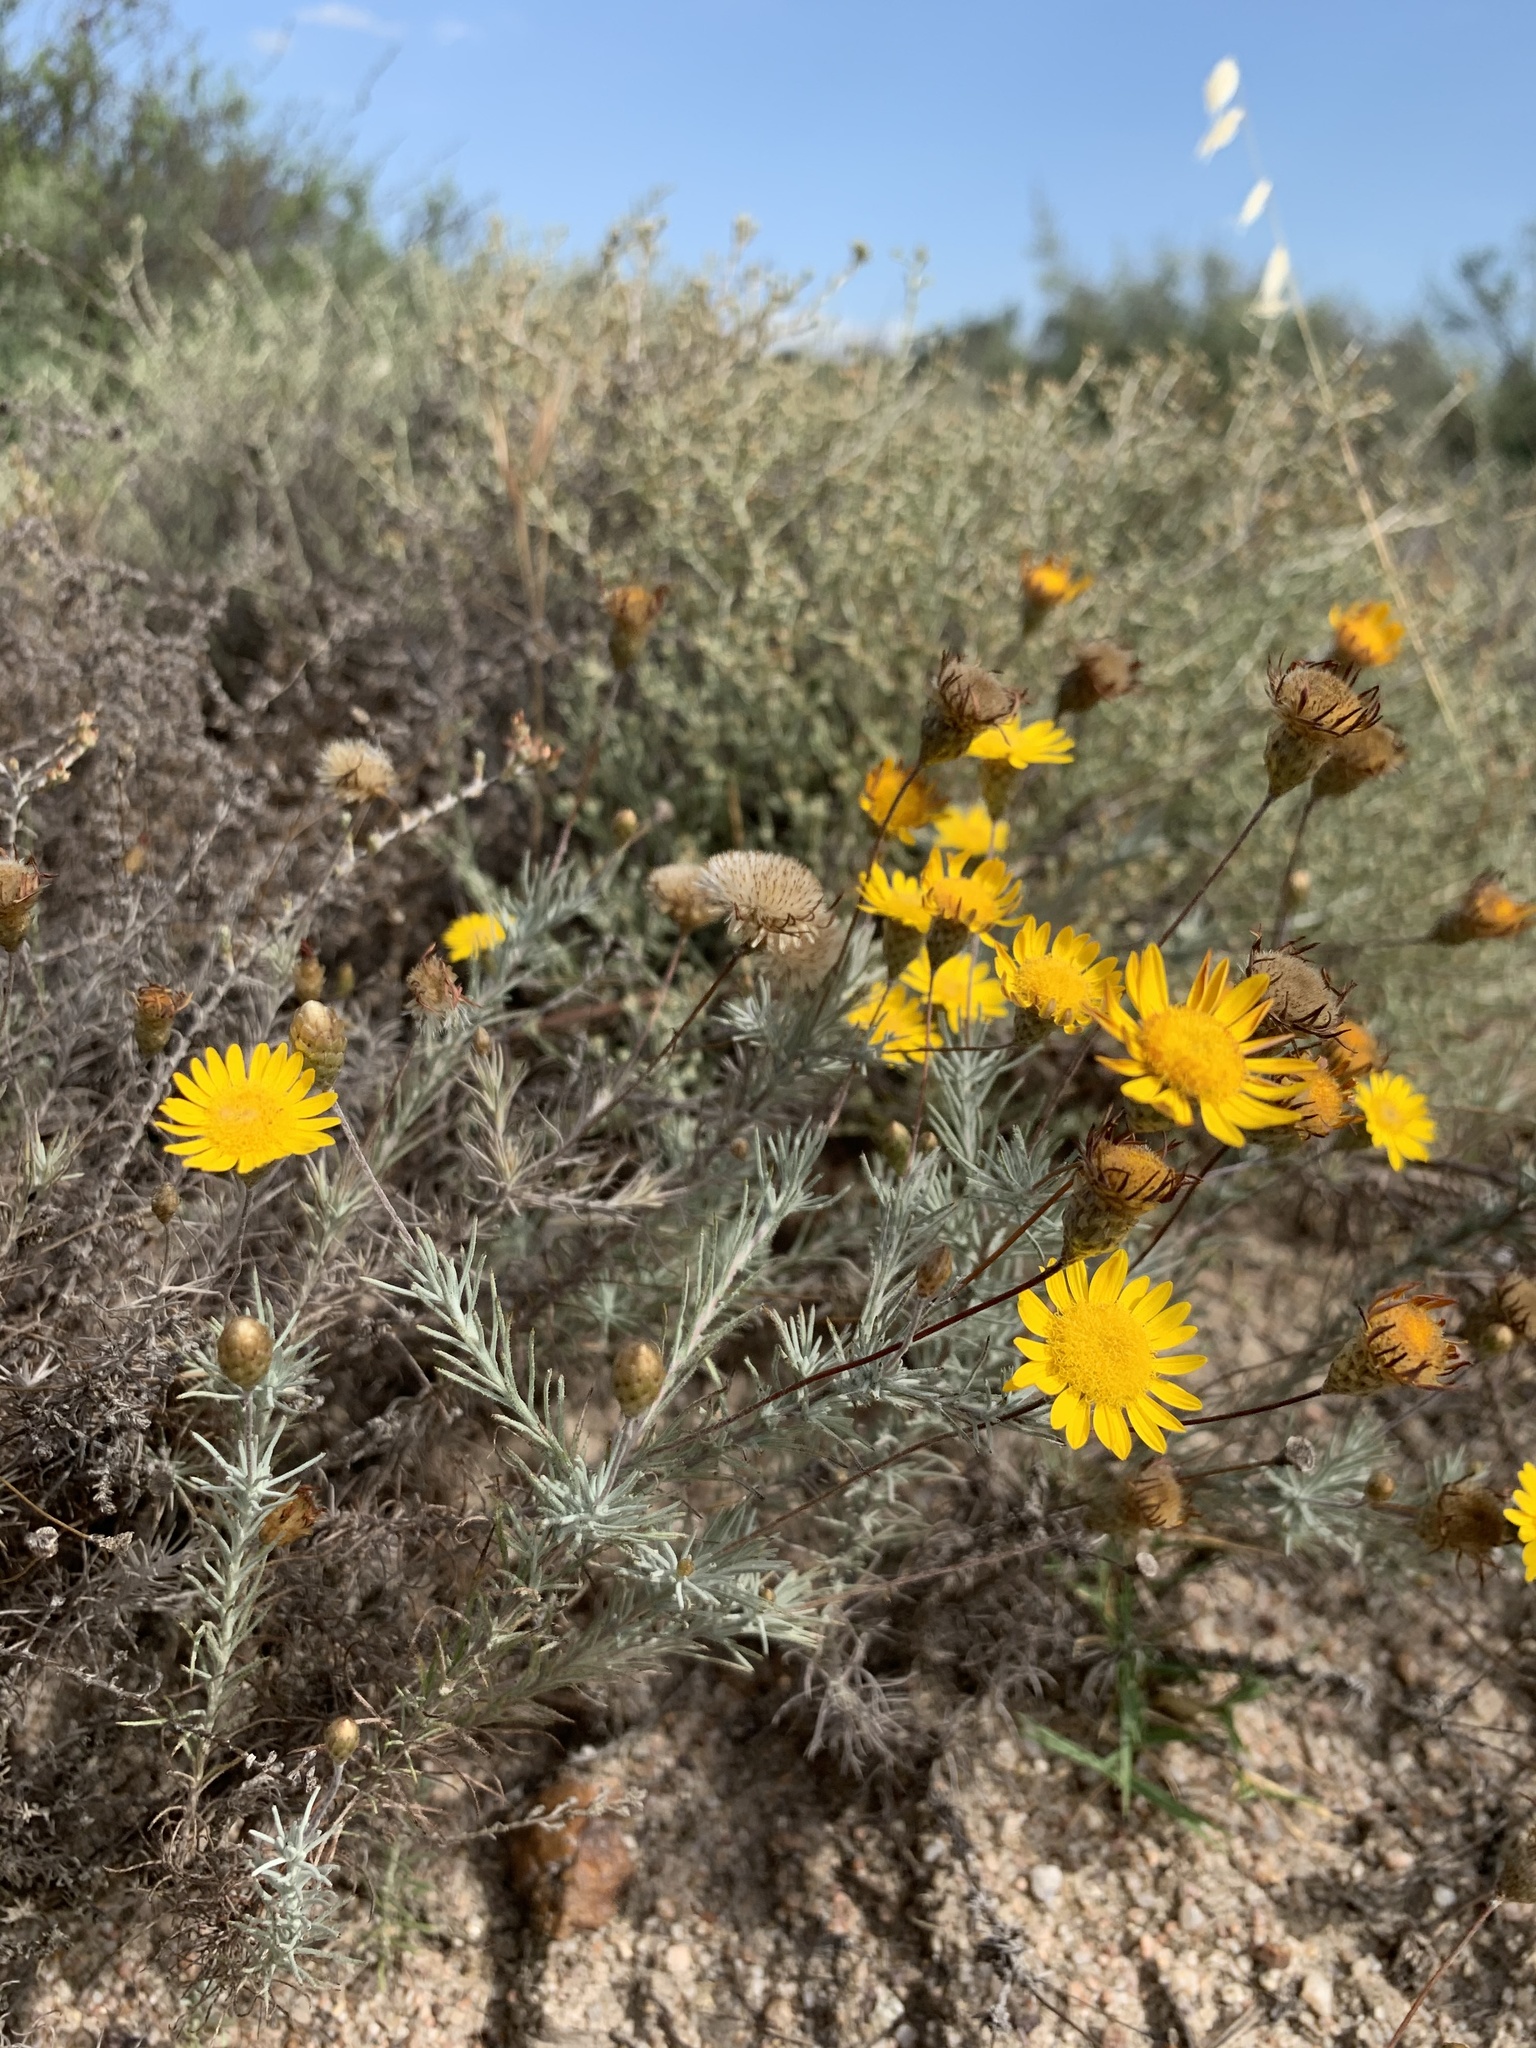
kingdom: Plantae
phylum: Tracheophyta
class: Magnoliopsida
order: Asterales
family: Asteraceae
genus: Leysera
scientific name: Leysera gnaphalodes
